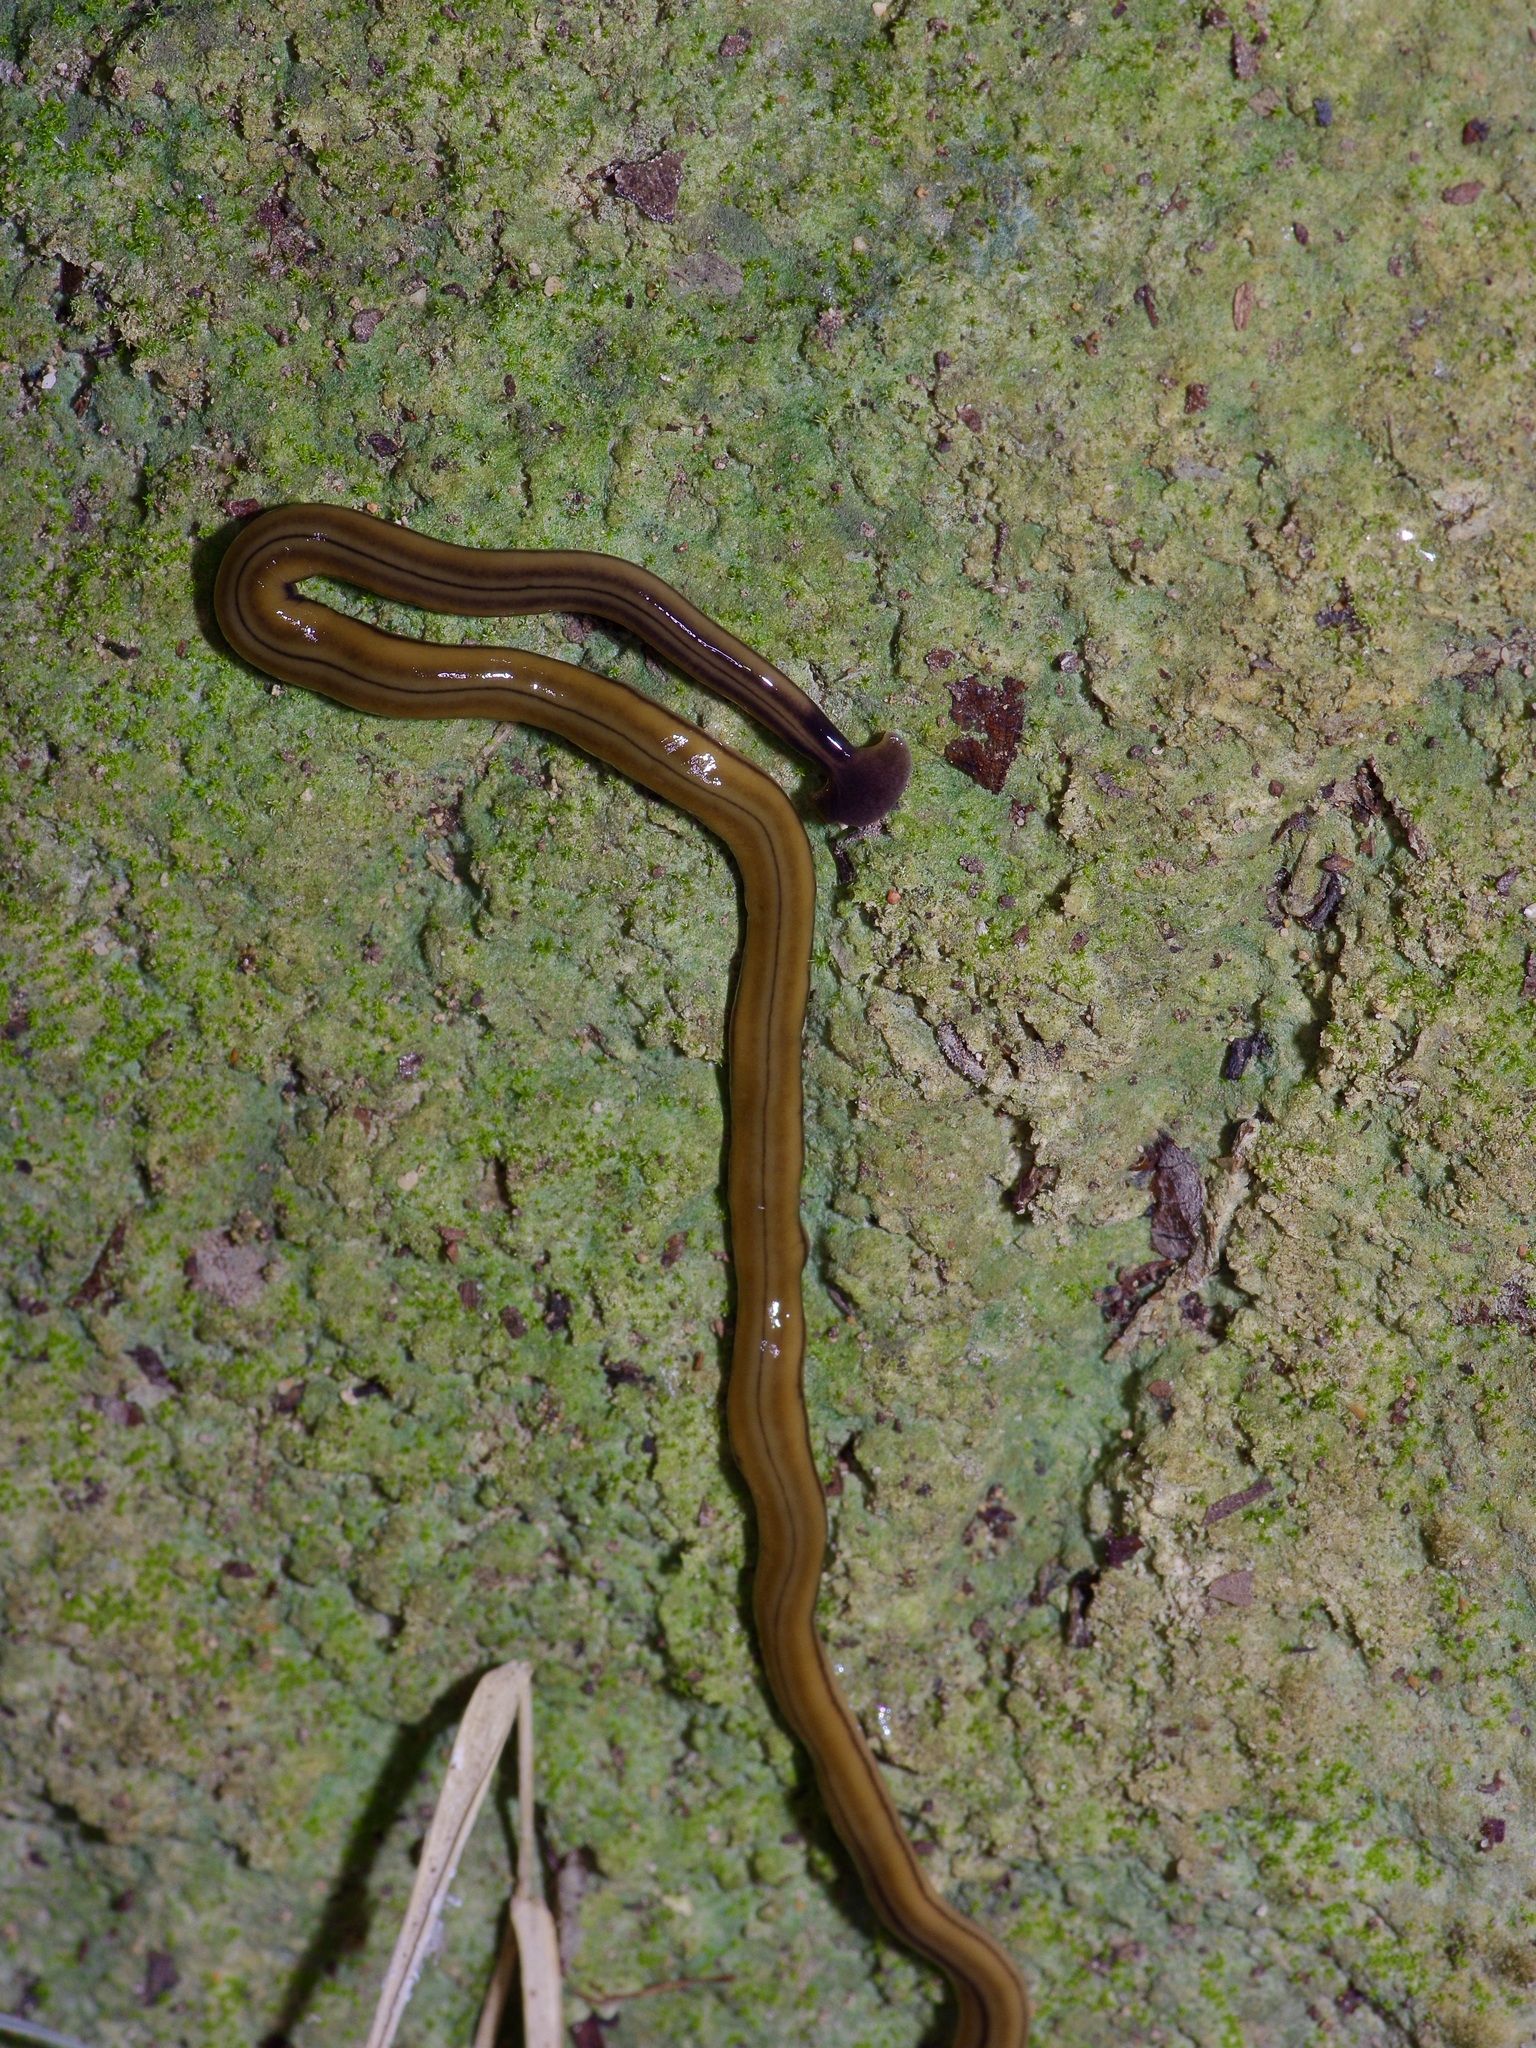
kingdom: Animalia
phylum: Platyhelminthes
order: Tricladida
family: Geoplanidae
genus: Bipalium
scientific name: Bipalium kewense
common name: Hammerhead flatworm
